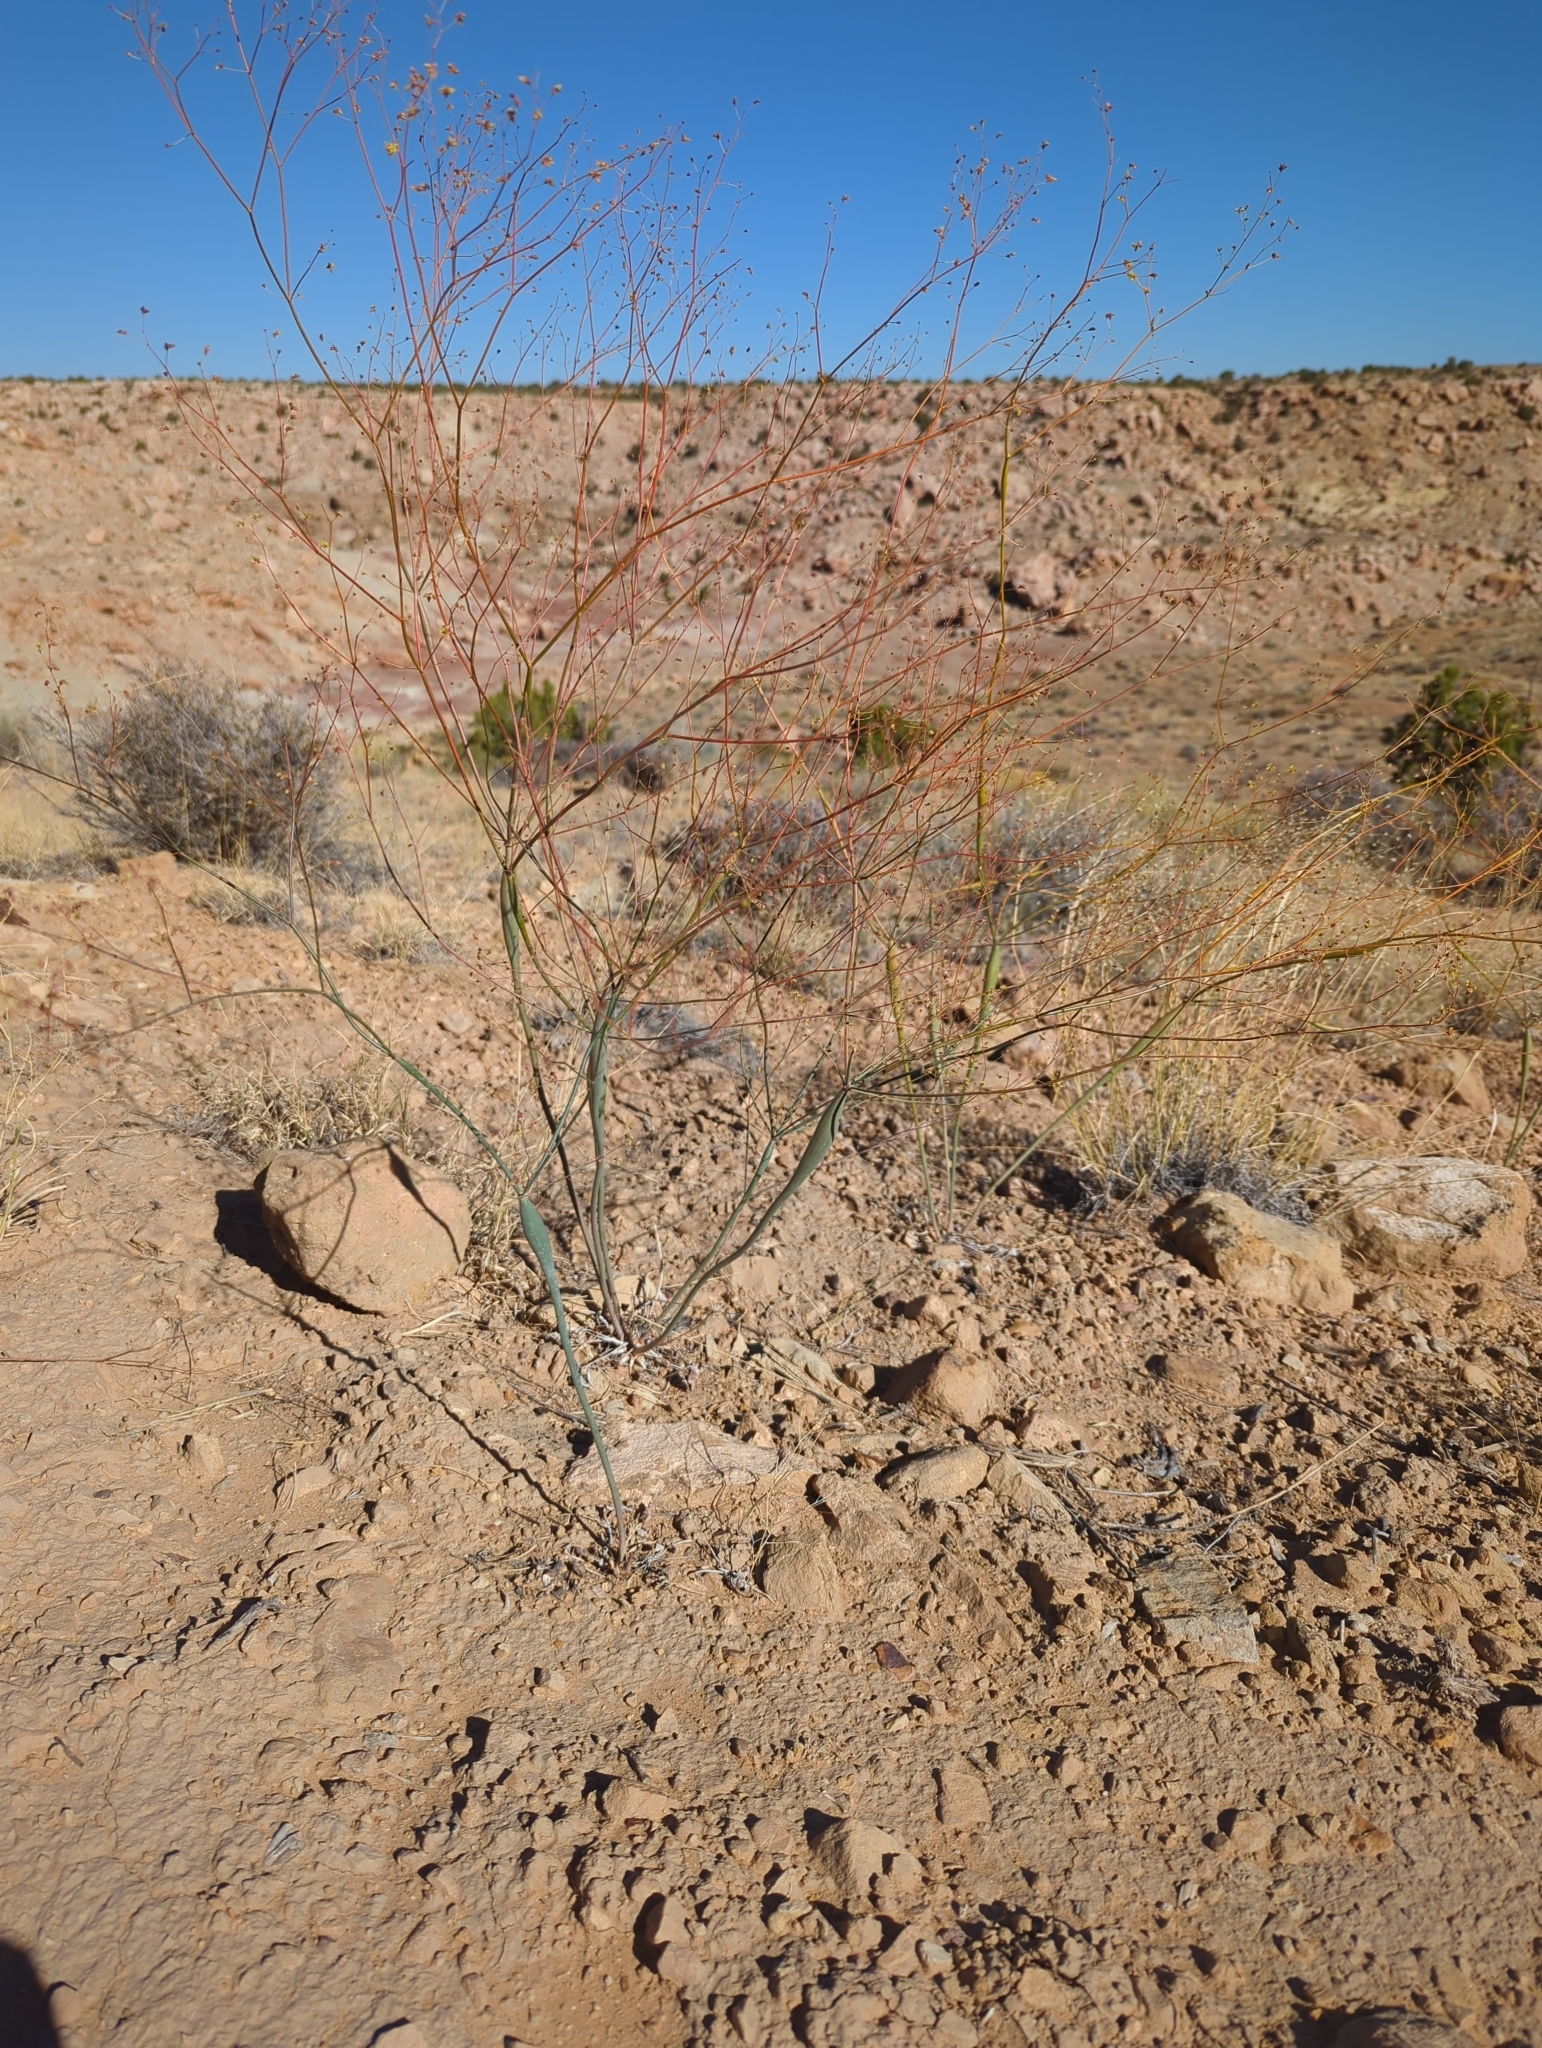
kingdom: Plantae
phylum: Tracheophyta
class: Magnoliopsida
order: Caryophyllales
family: Polygonaceae
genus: Eriogonum
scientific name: Eriogonum fusiforme
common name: Grand valley desert trumpet
